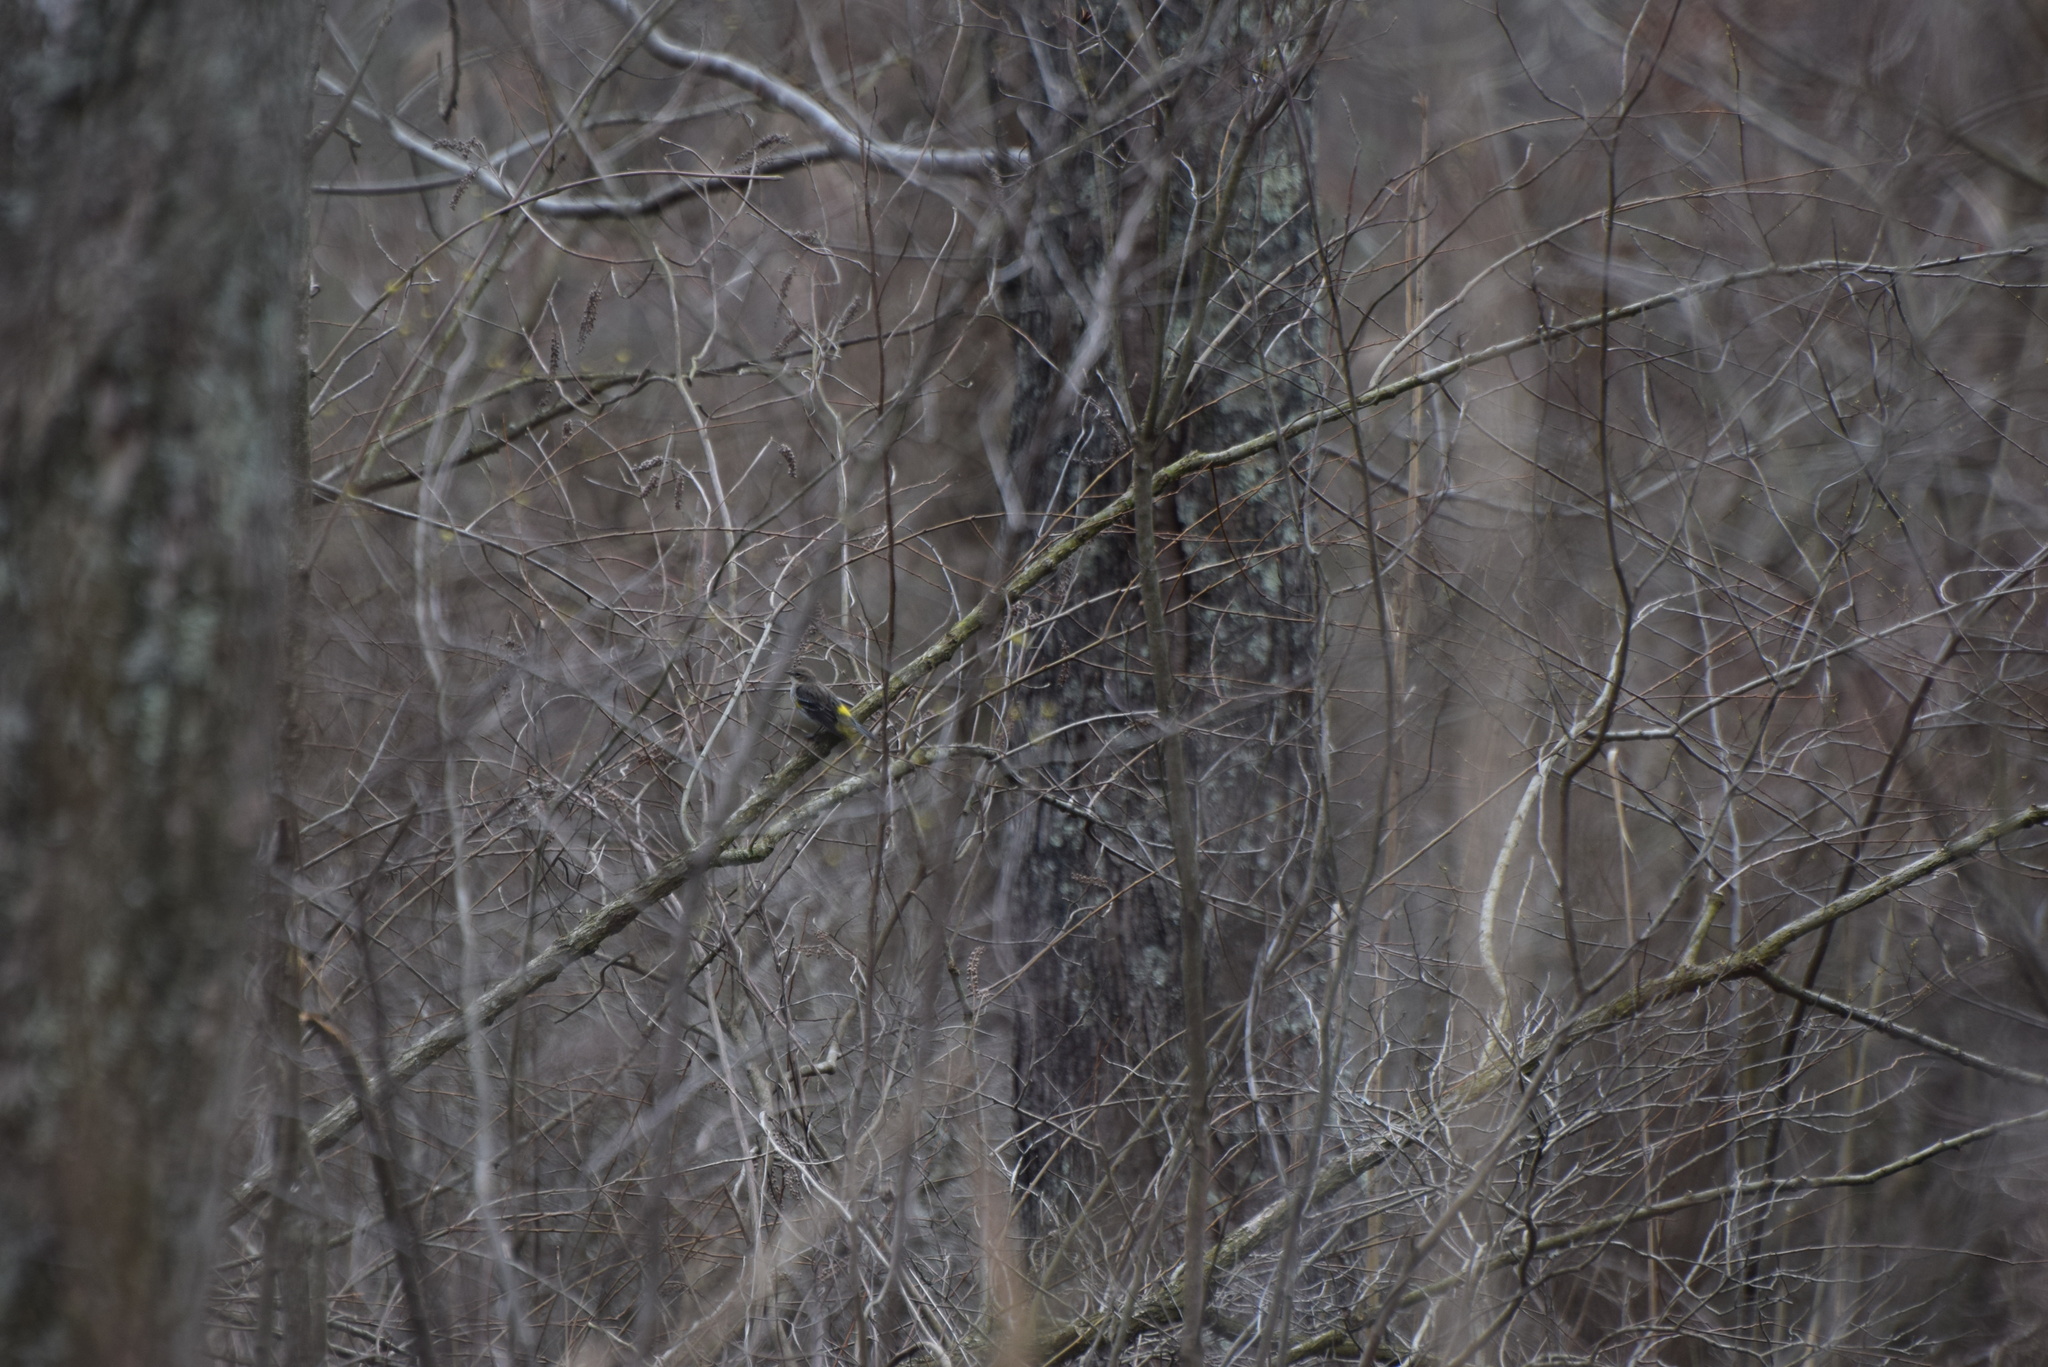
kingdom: Animalia
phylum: Chordata
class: Aves
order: Passeriformes
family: Parulidae
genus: Setophaga
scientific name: Setophaga coronata
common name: Myrtle warbler
